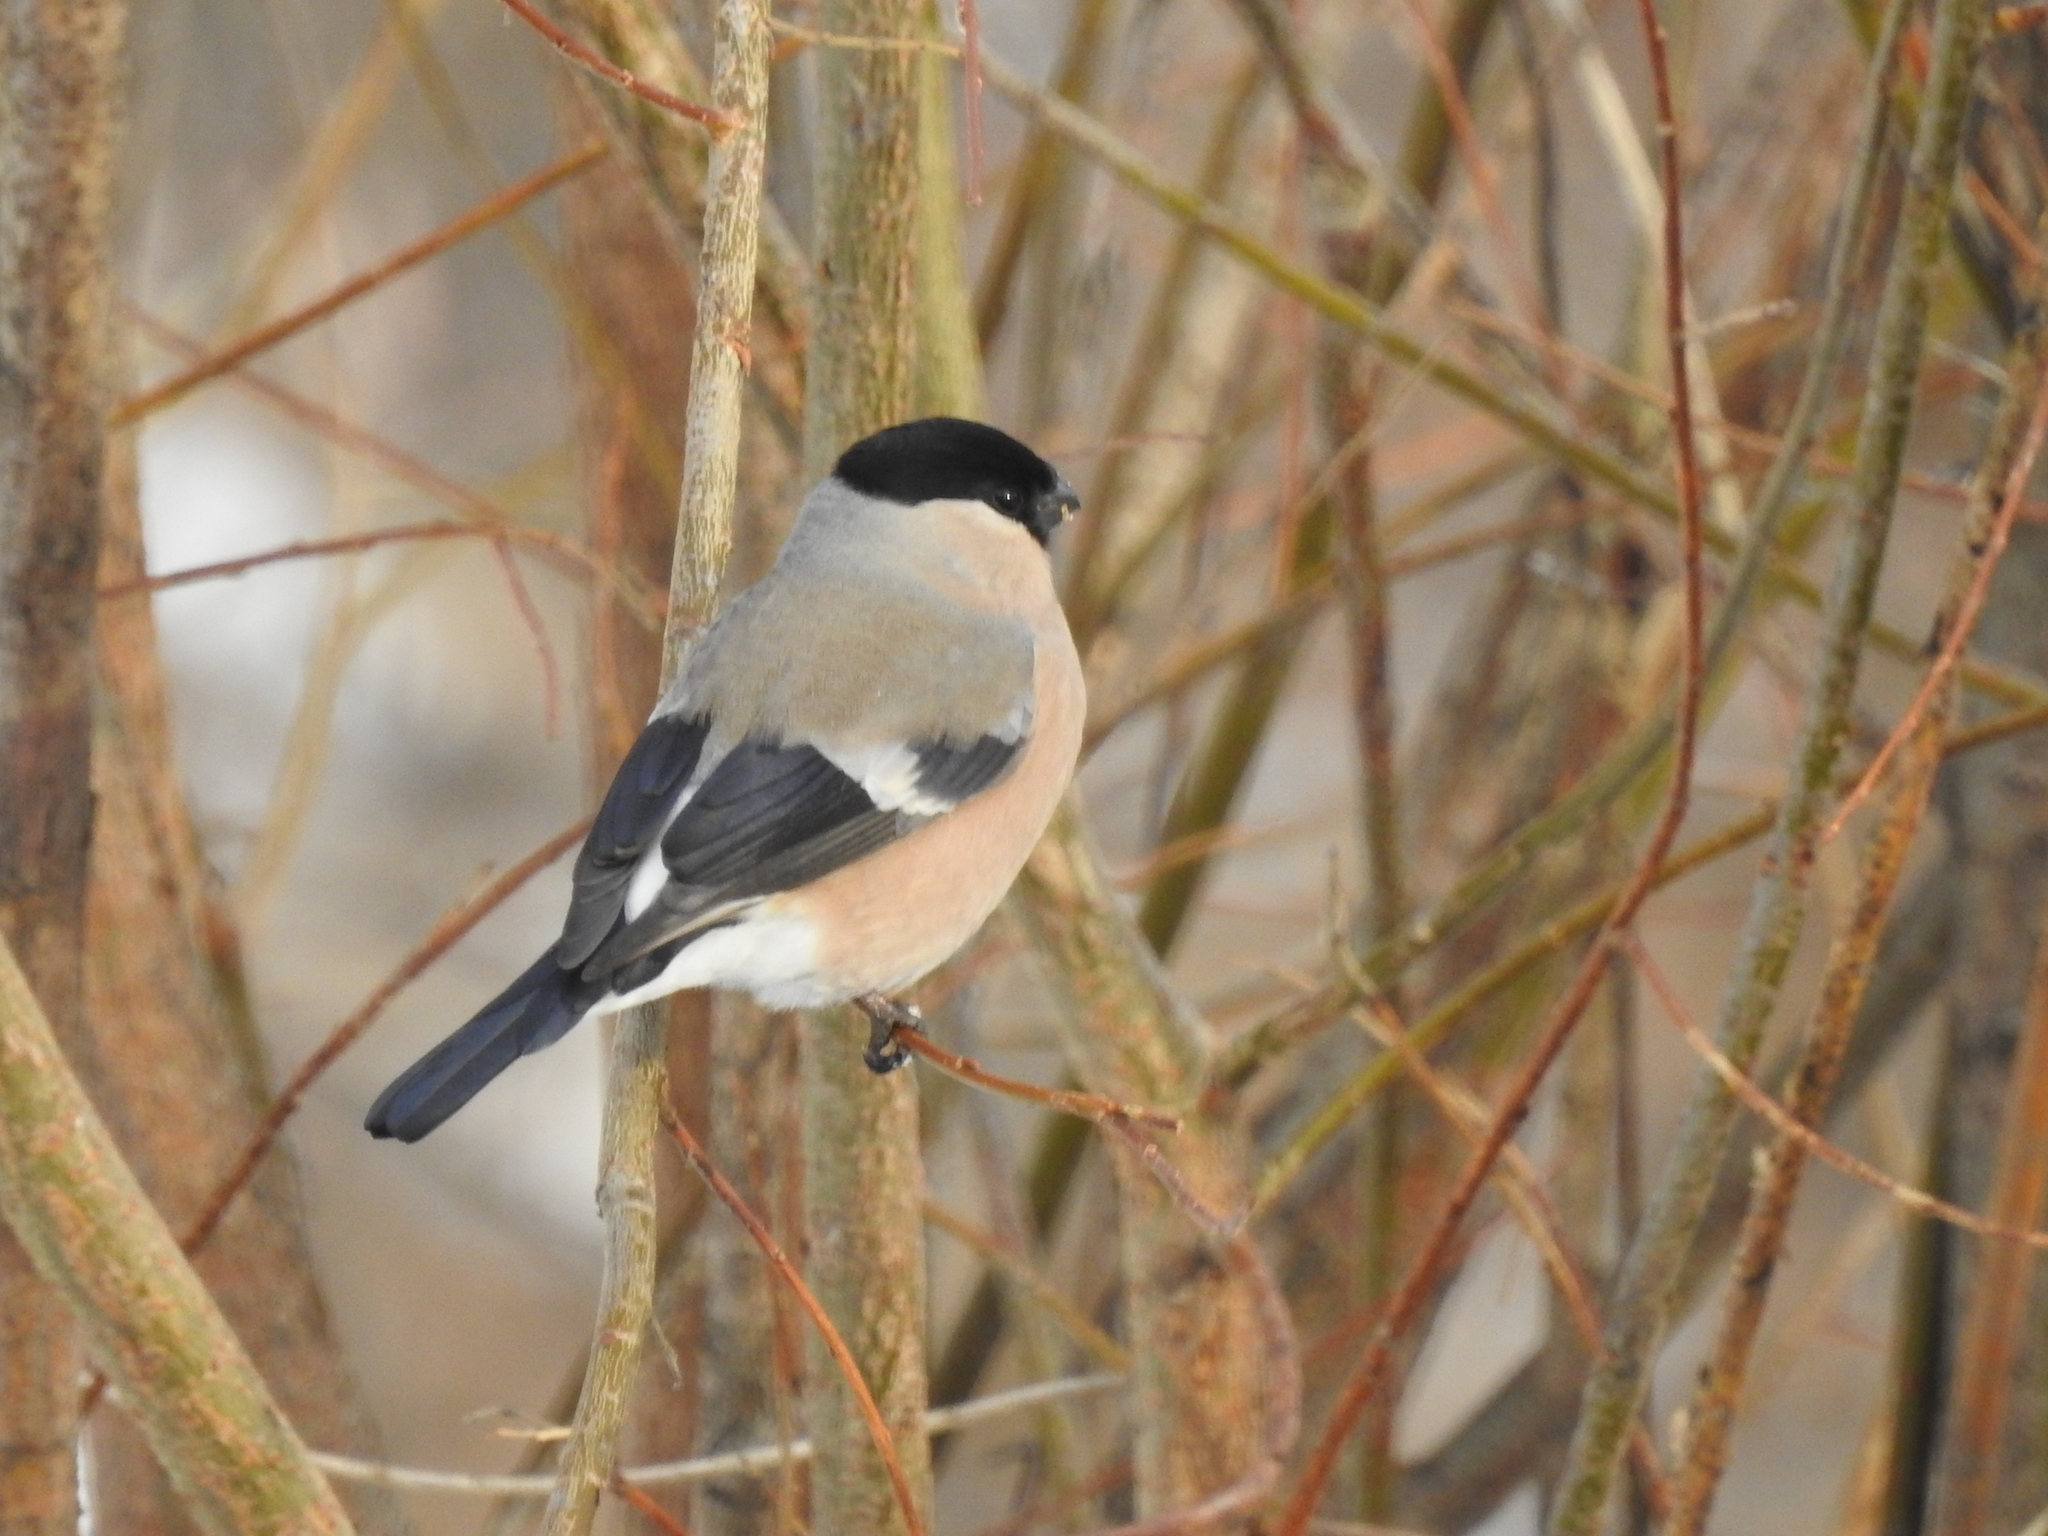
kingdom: Animalia
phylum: Chordata
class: Aves
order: Passeriformes
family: Fringillidae
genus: Pyrrhula
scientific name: Pyrrhula pyrrhula
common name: Eurasian bullfinch
